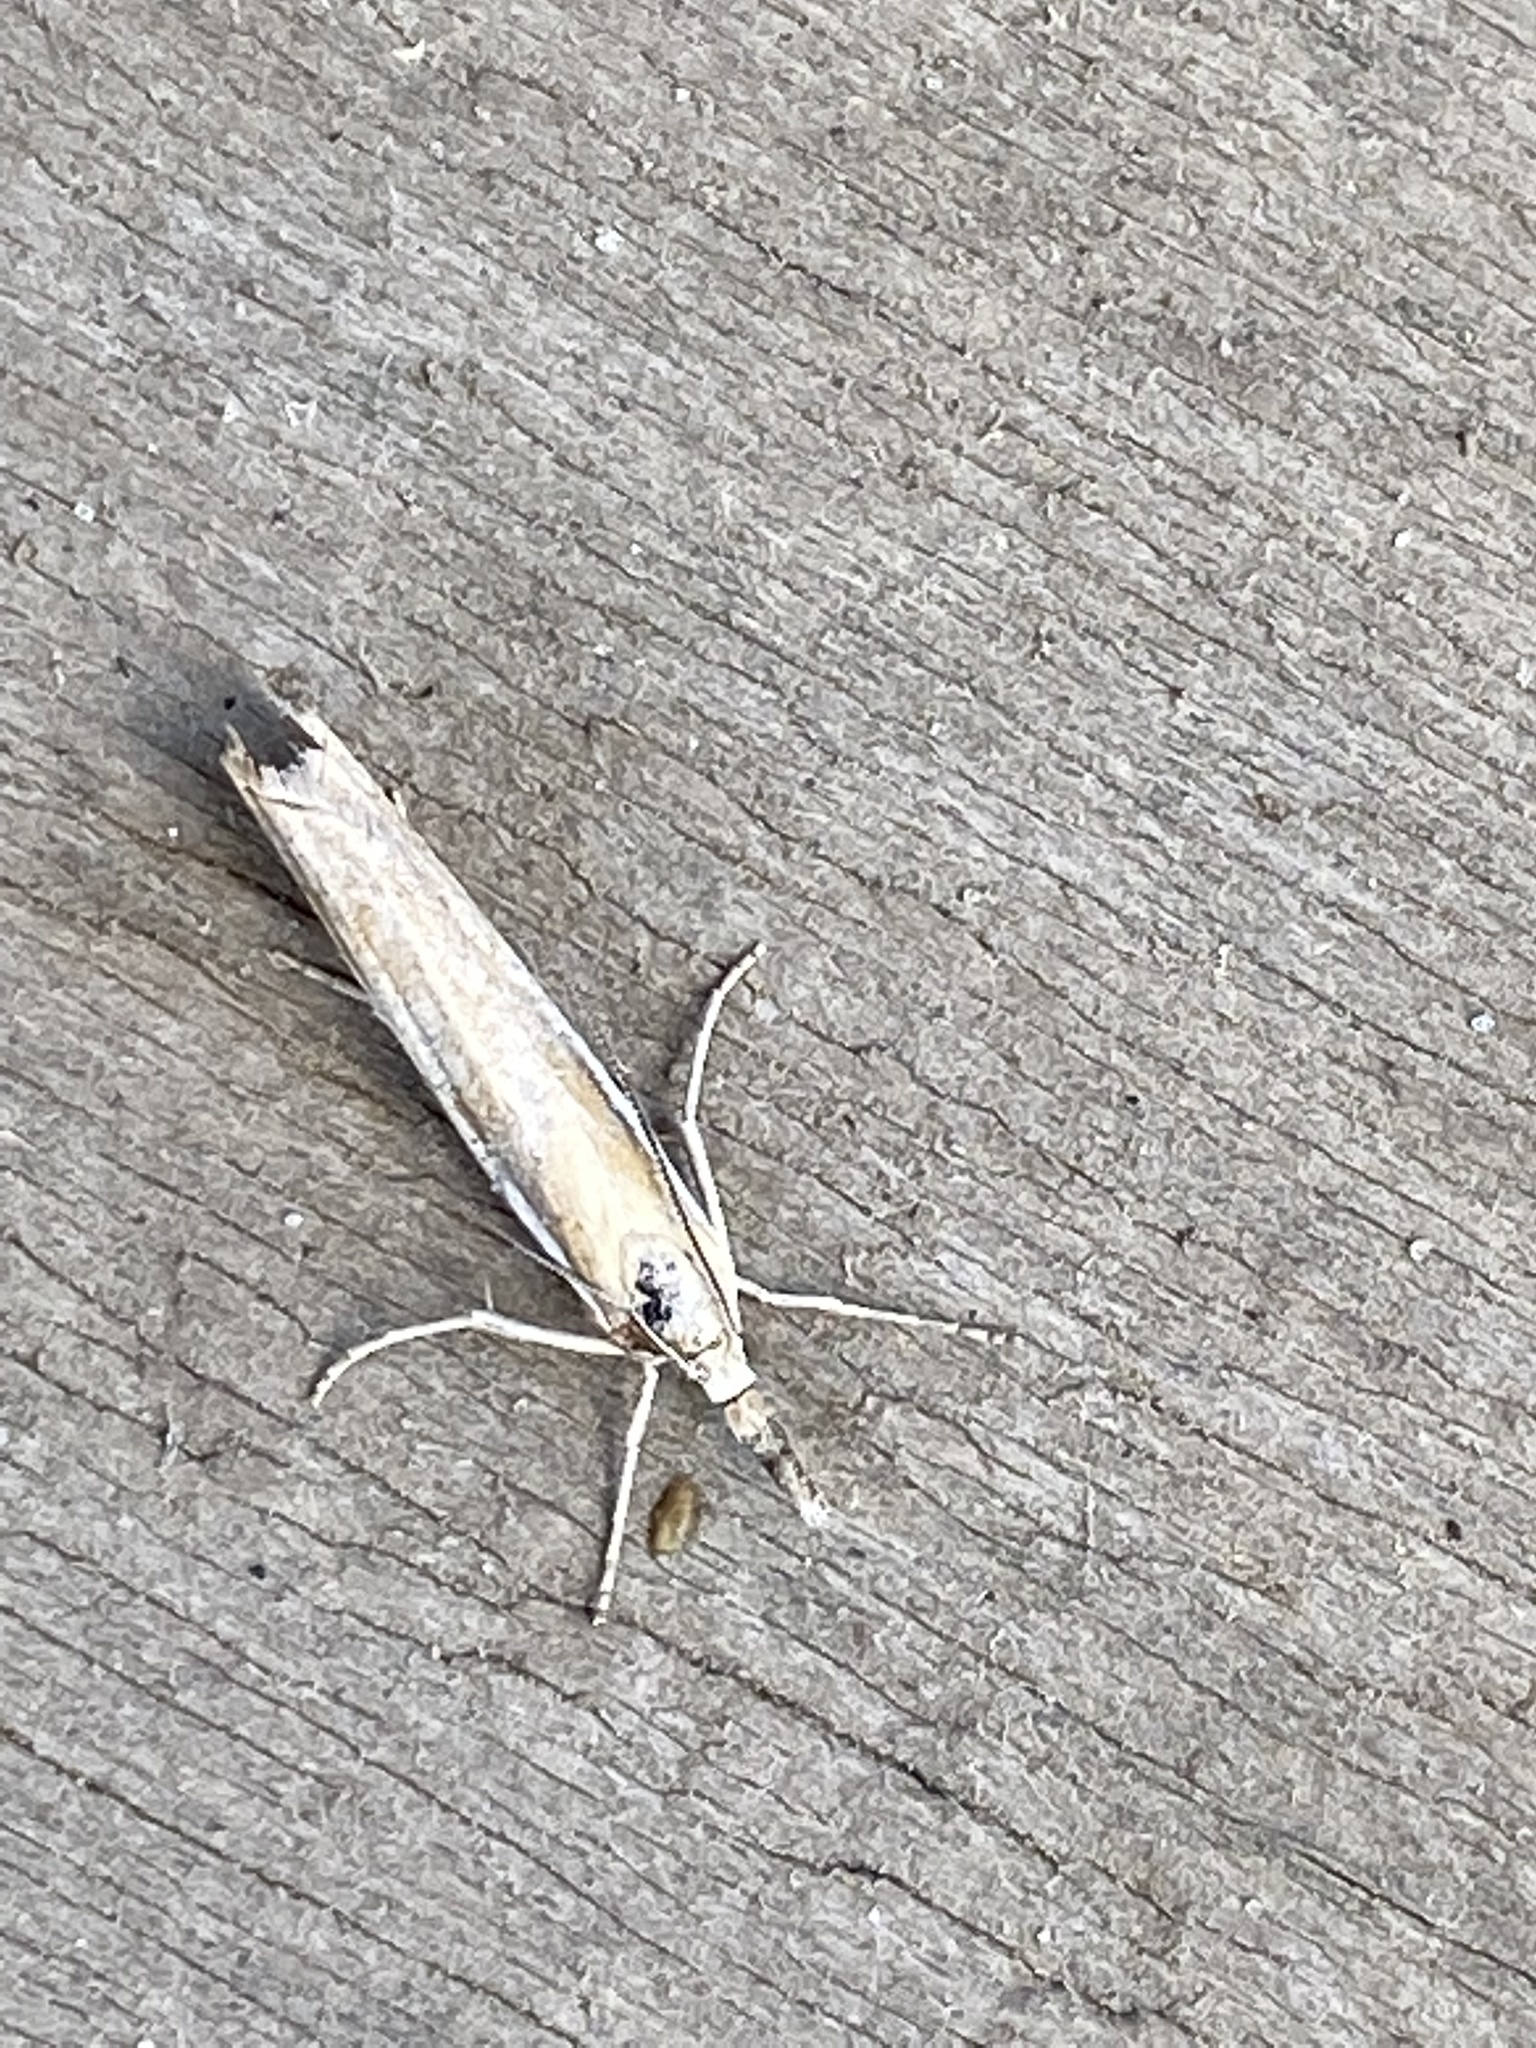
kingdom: Animalia
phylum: Arthropoda
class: Insecta
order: Lepidoptera
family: Crambidae
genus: Agriphila
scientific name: Agriphila tristellus
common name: Common grass-veneer
